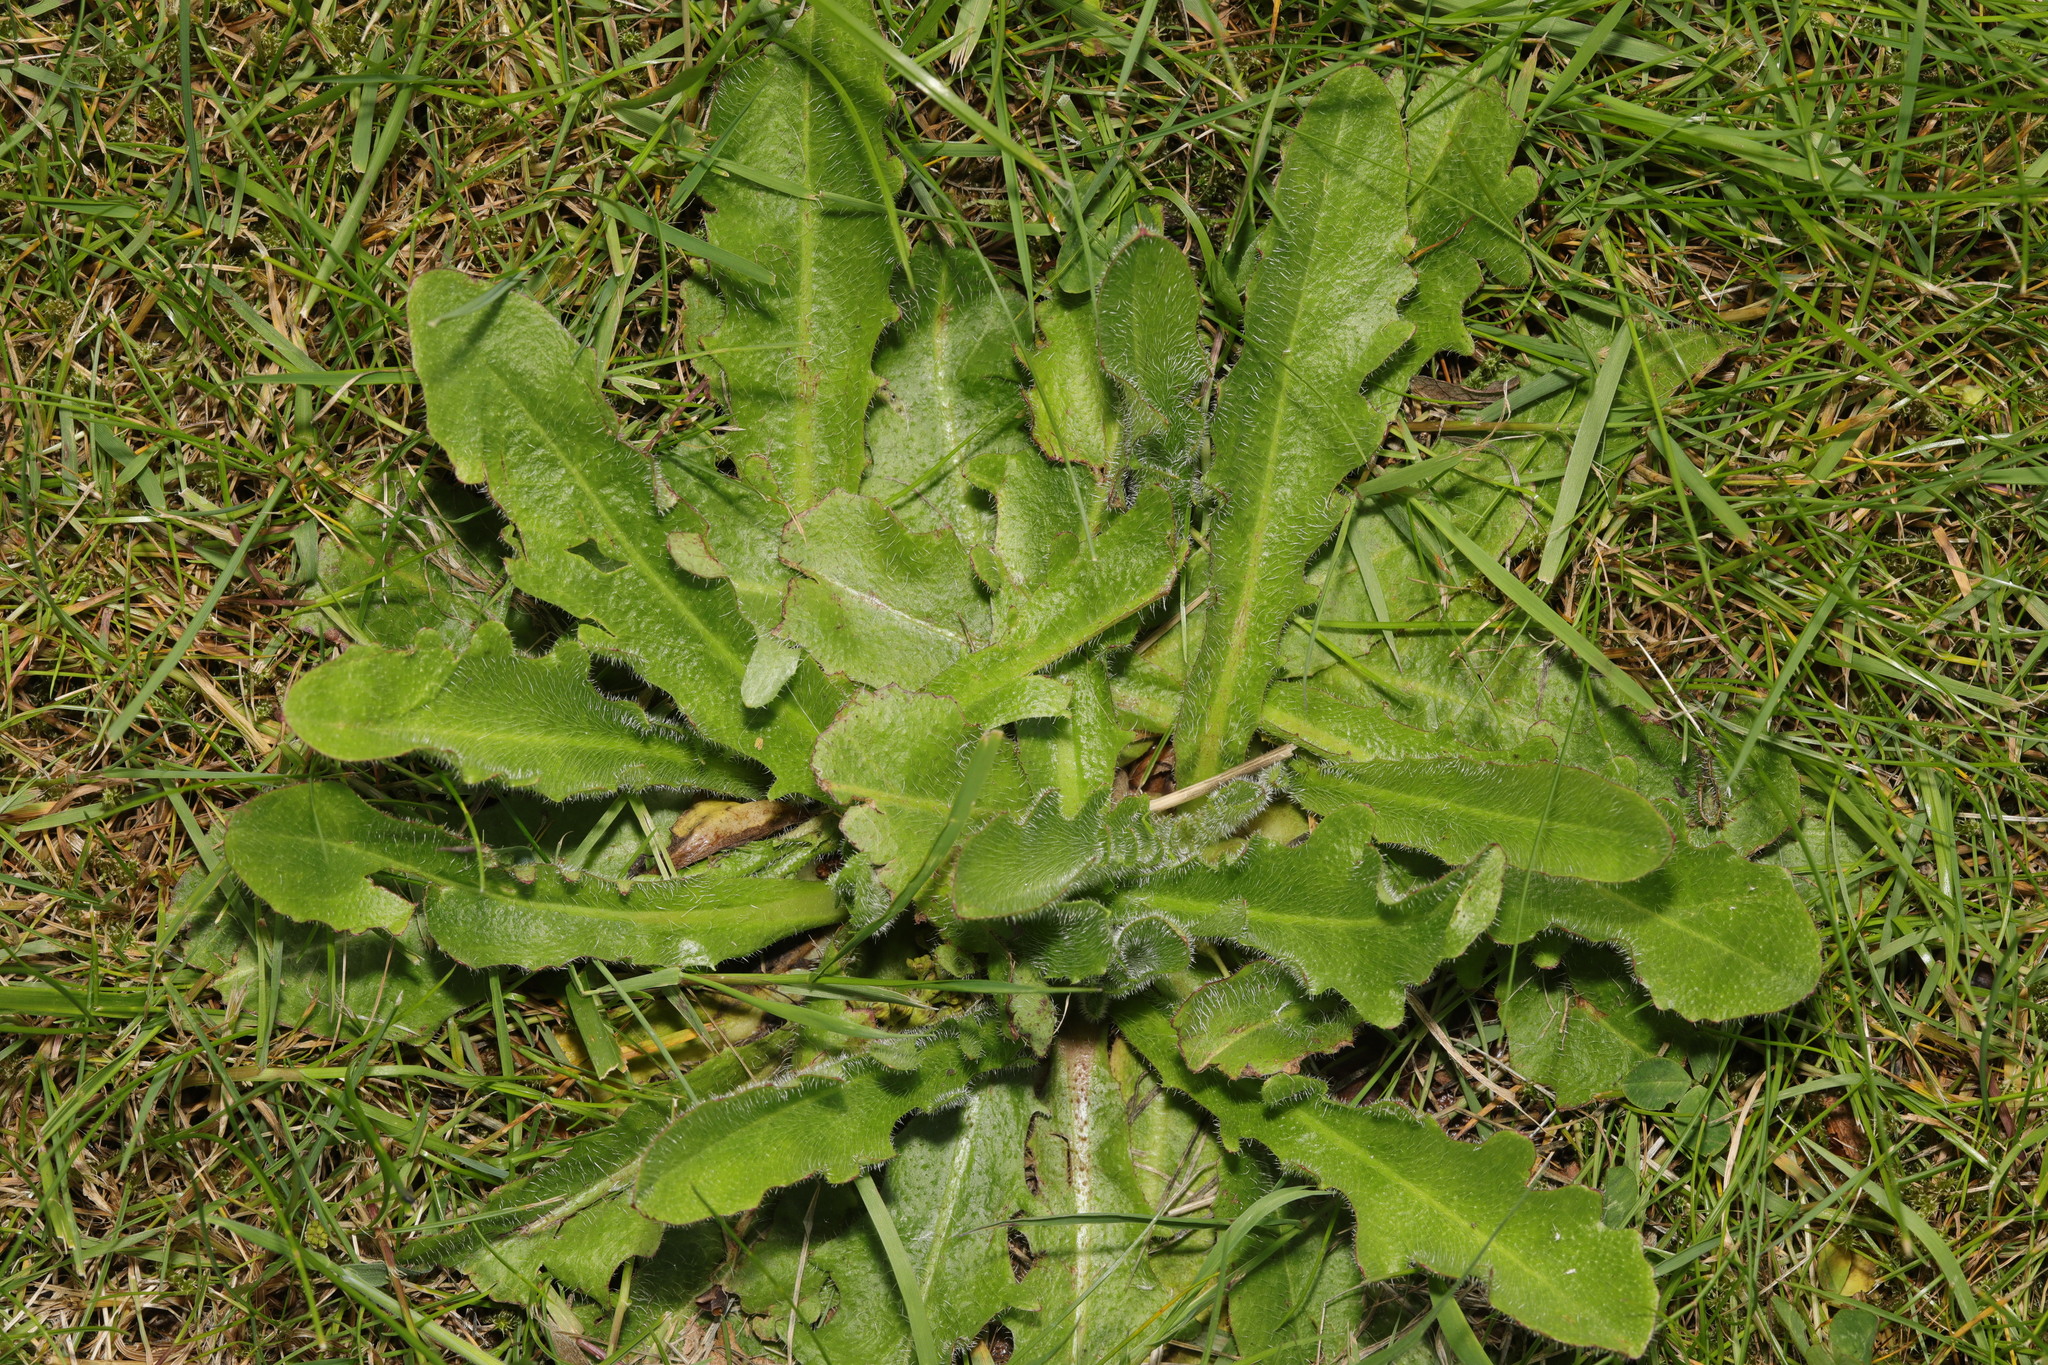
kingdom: Plantae
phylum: Tracheophyta
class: Magnoliopsida
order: Asterales
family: Asteraceae
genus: Hypochaeris
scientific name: Hypochaeris radicata
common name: Flatweed
